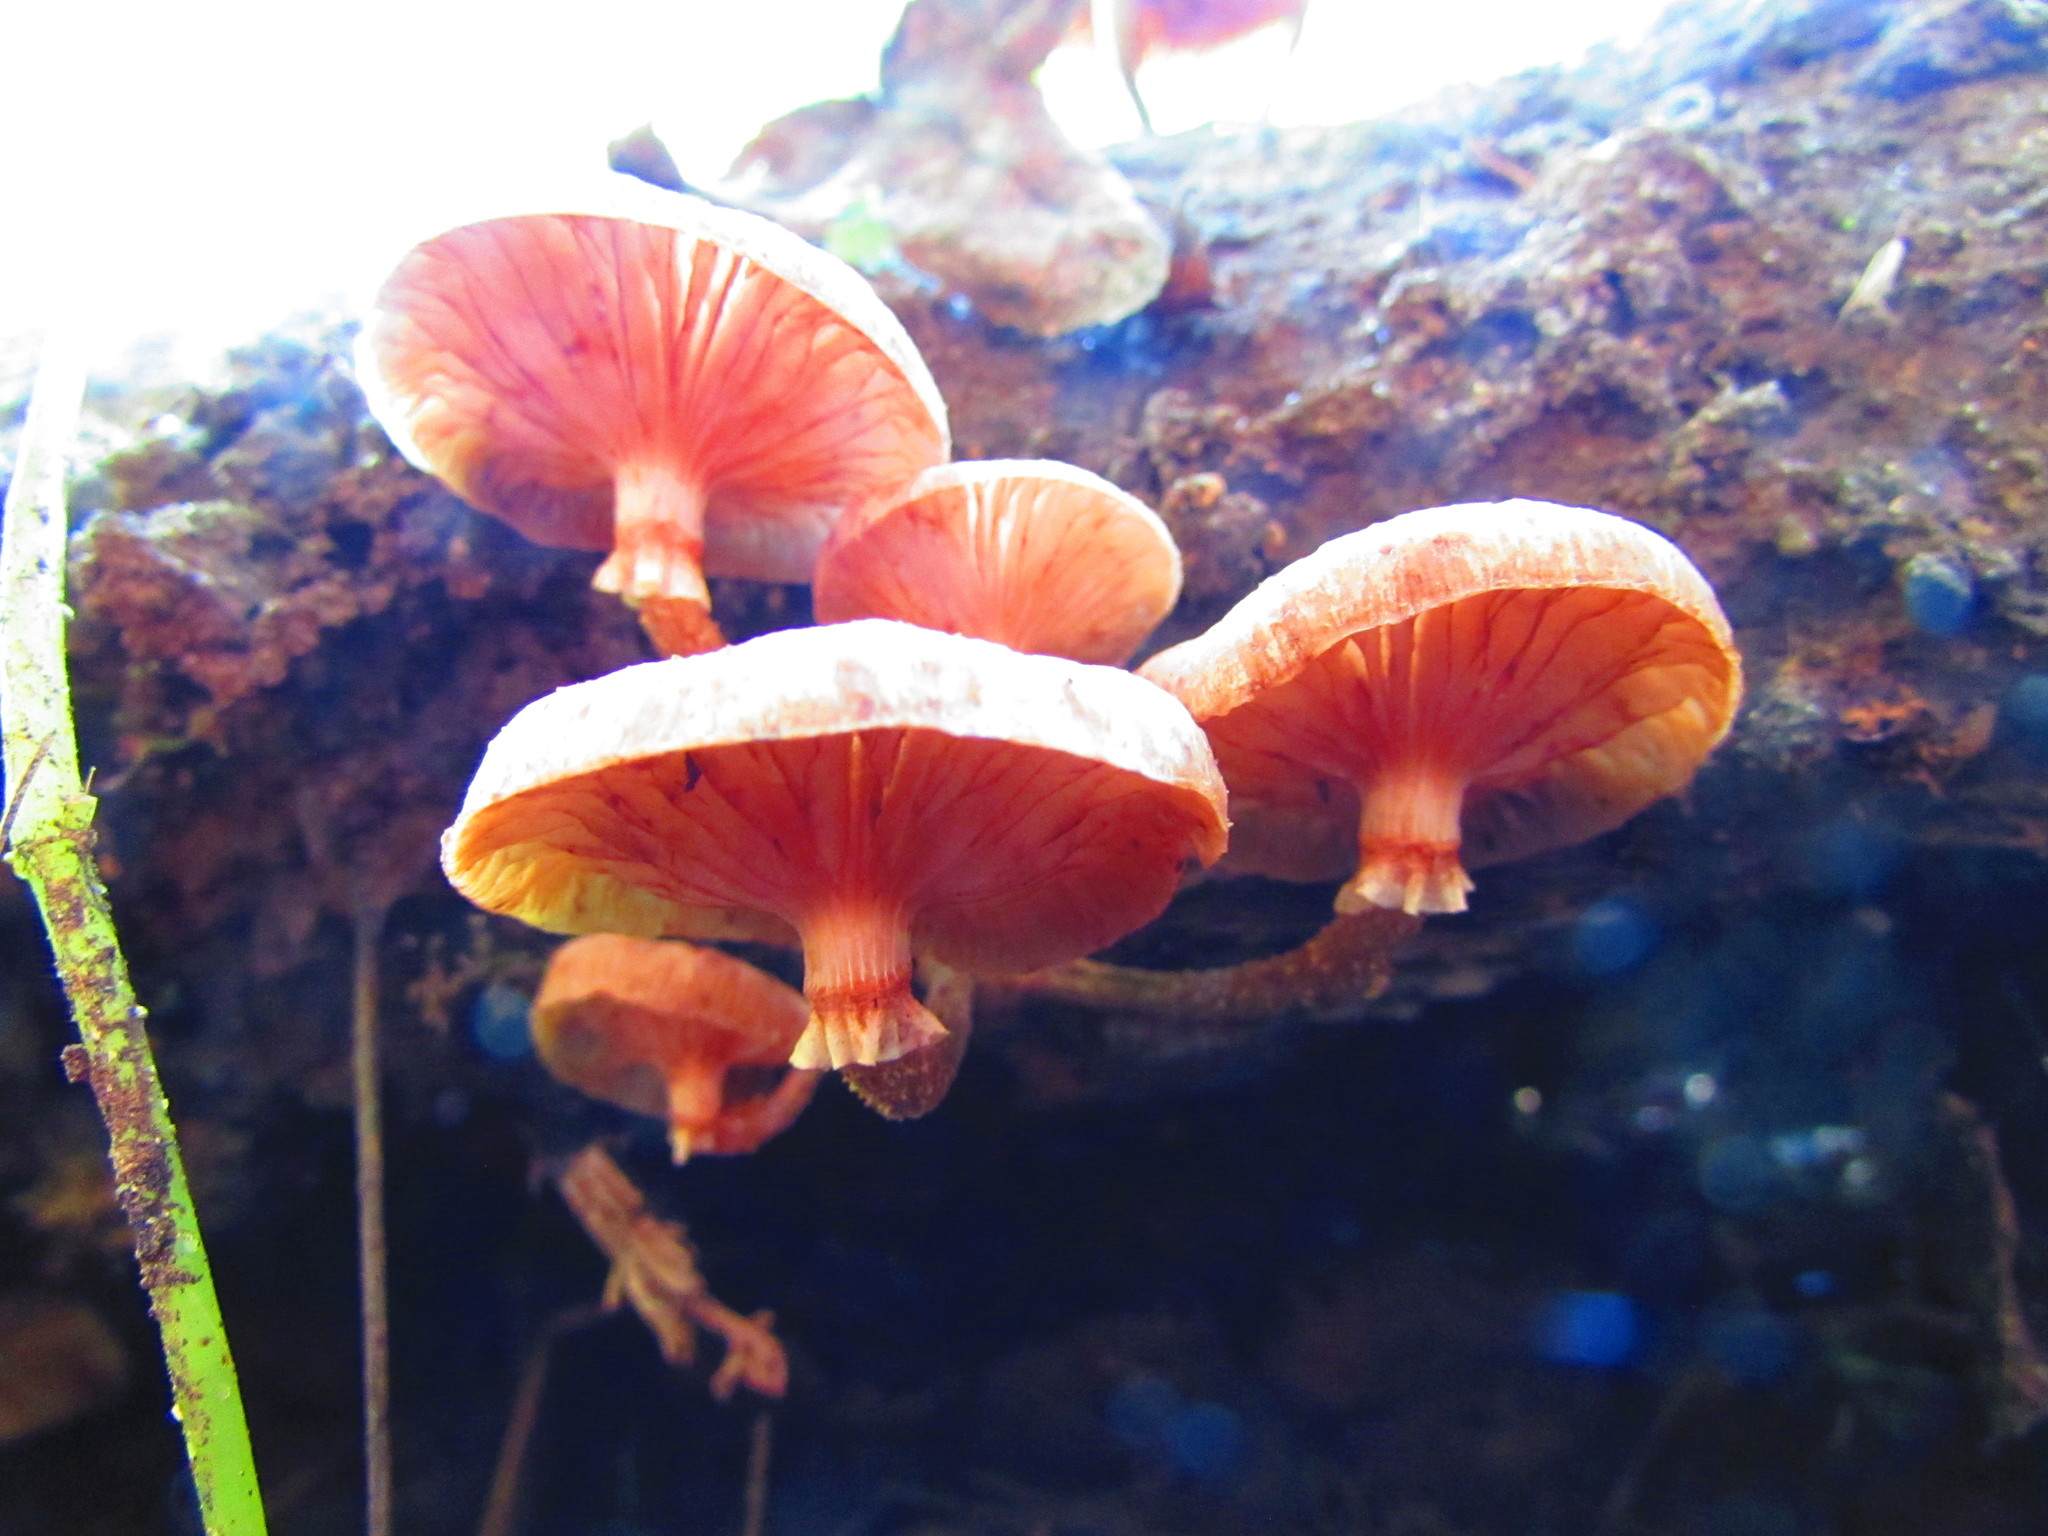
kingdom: Fungi
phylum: Basidiomycota
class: Agaricomycetes
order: Agaricales
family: Physalacriaceae
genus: Armillaria
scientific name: Armillaria mexicana
